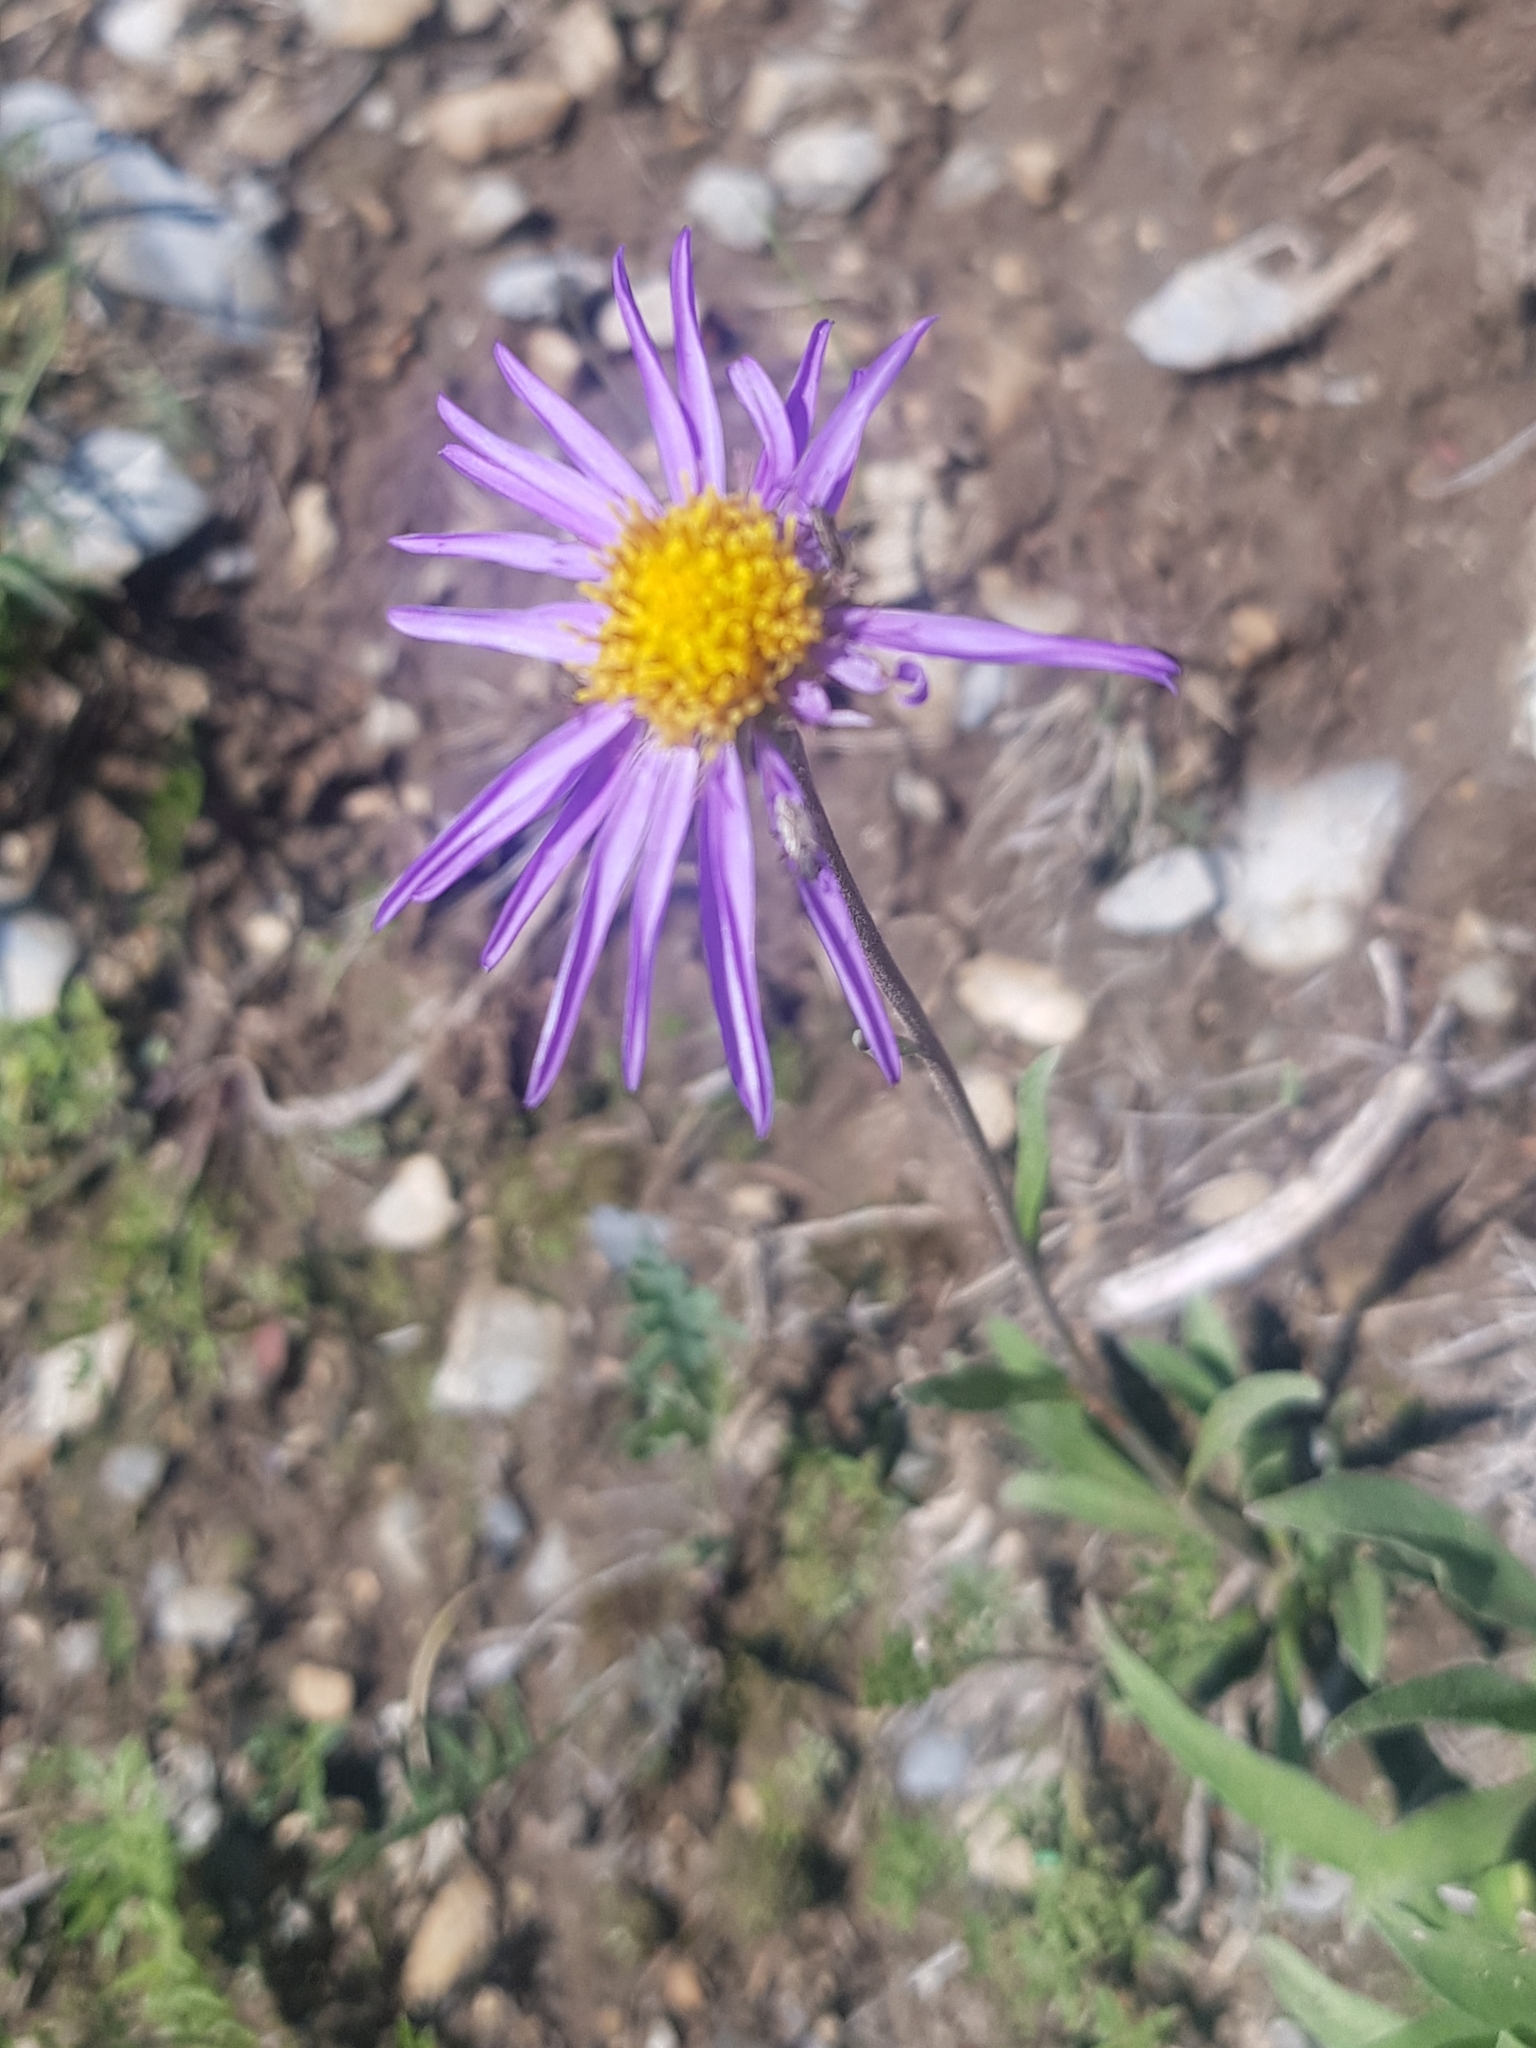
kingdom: Plantae
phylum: Tracheophyta
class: Magnoliopsida
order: Asterales
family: Asteraceae
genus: Aster
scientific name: Aster alpinus
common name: Alpine aster
